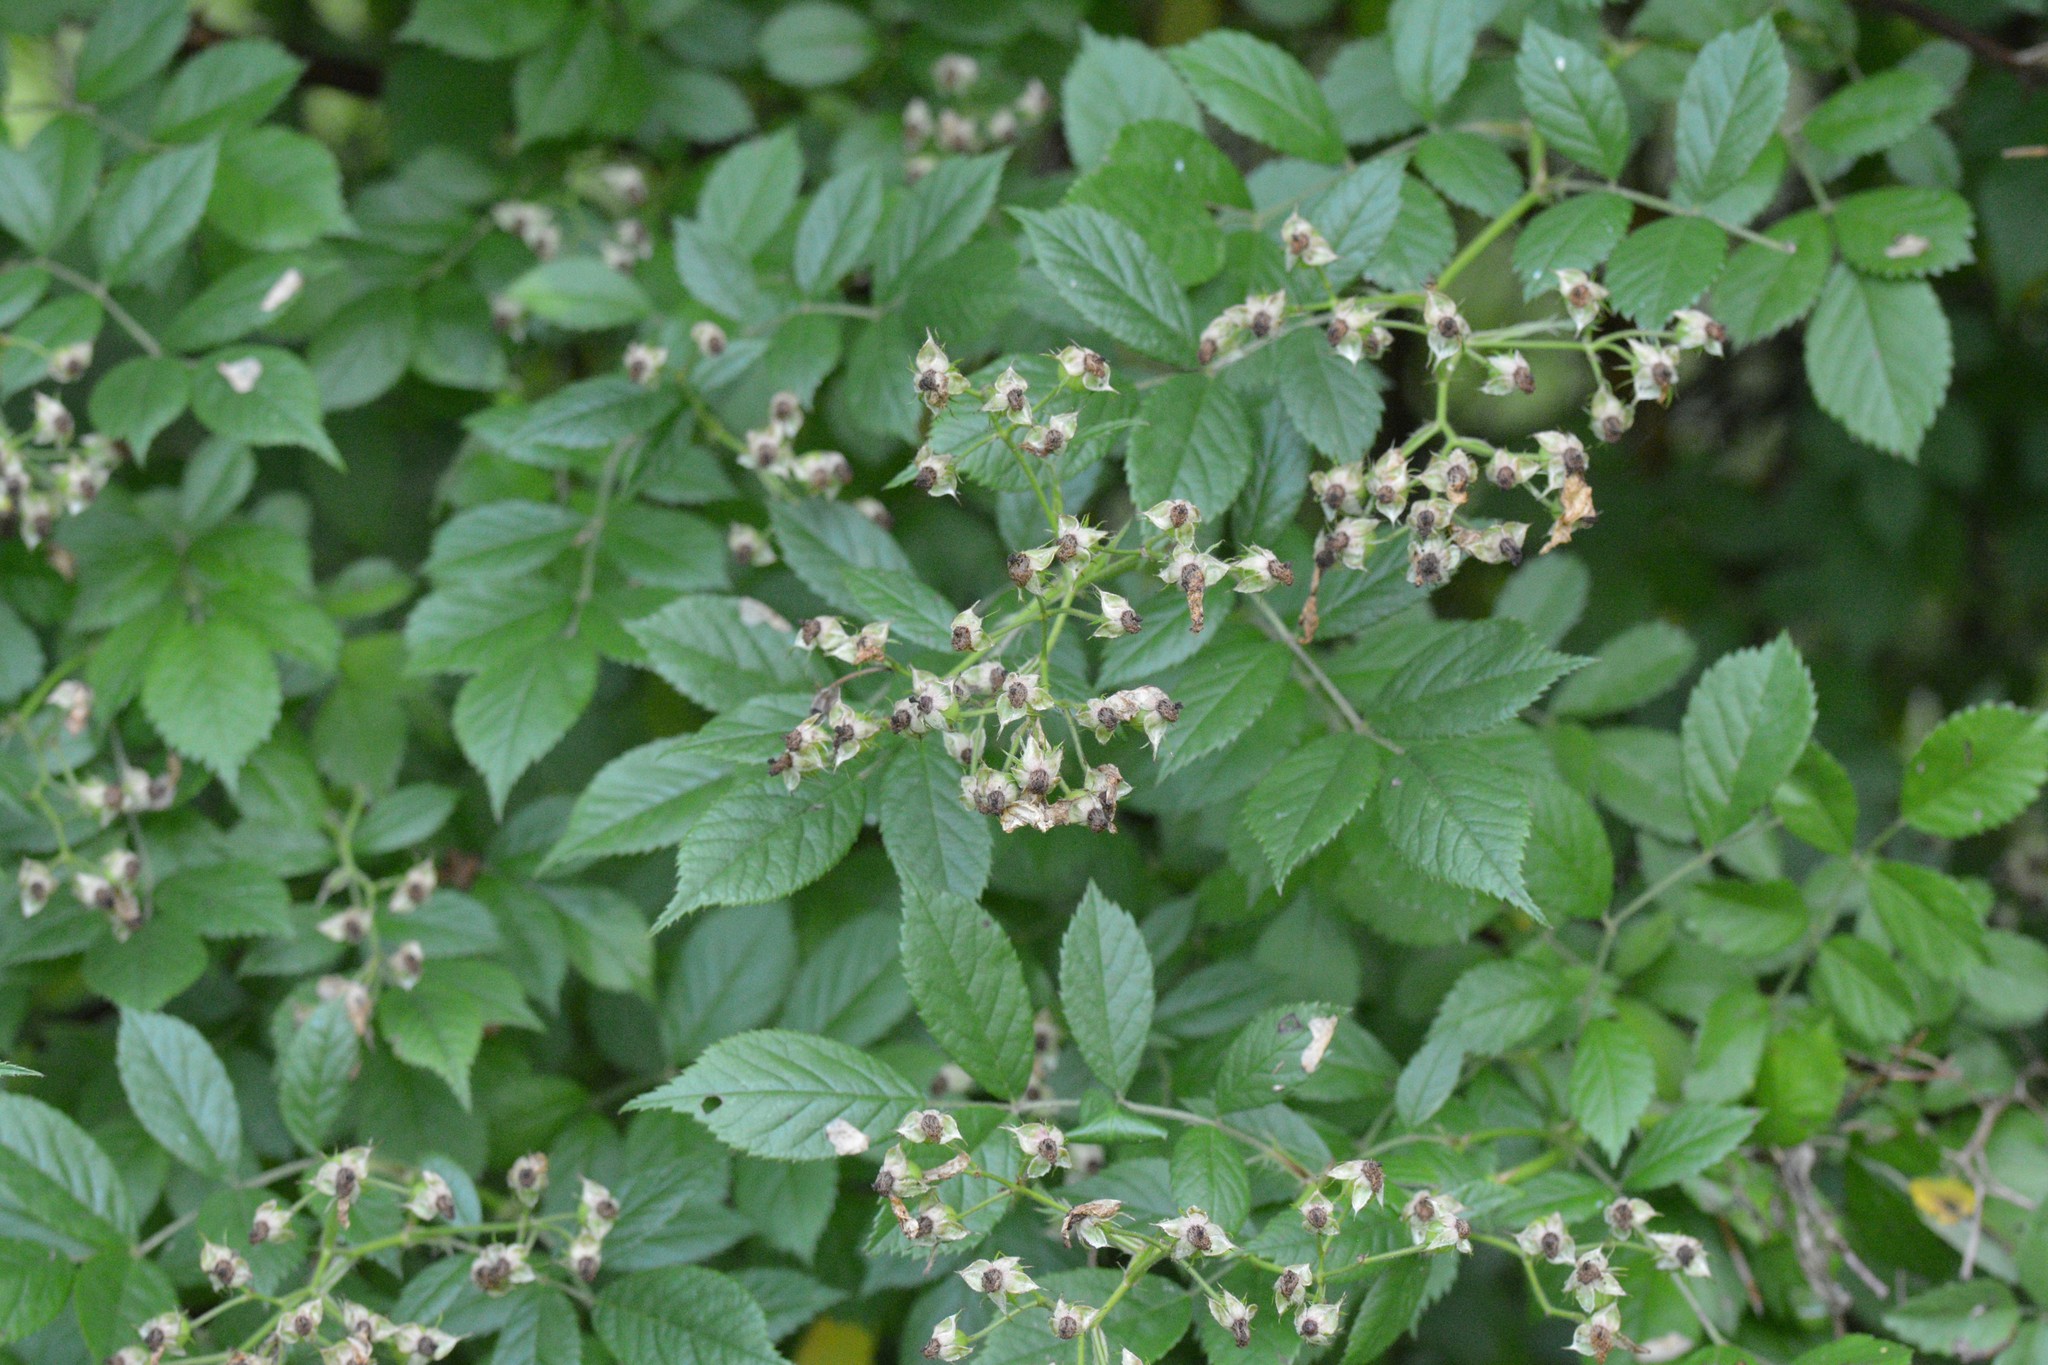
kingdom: Plantae
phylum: Tracheophyta
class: Magnoliopsida
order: Rosales
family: Rosaceae
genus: Rosa
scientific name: Rosa multiflora
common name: Multiflora rose
